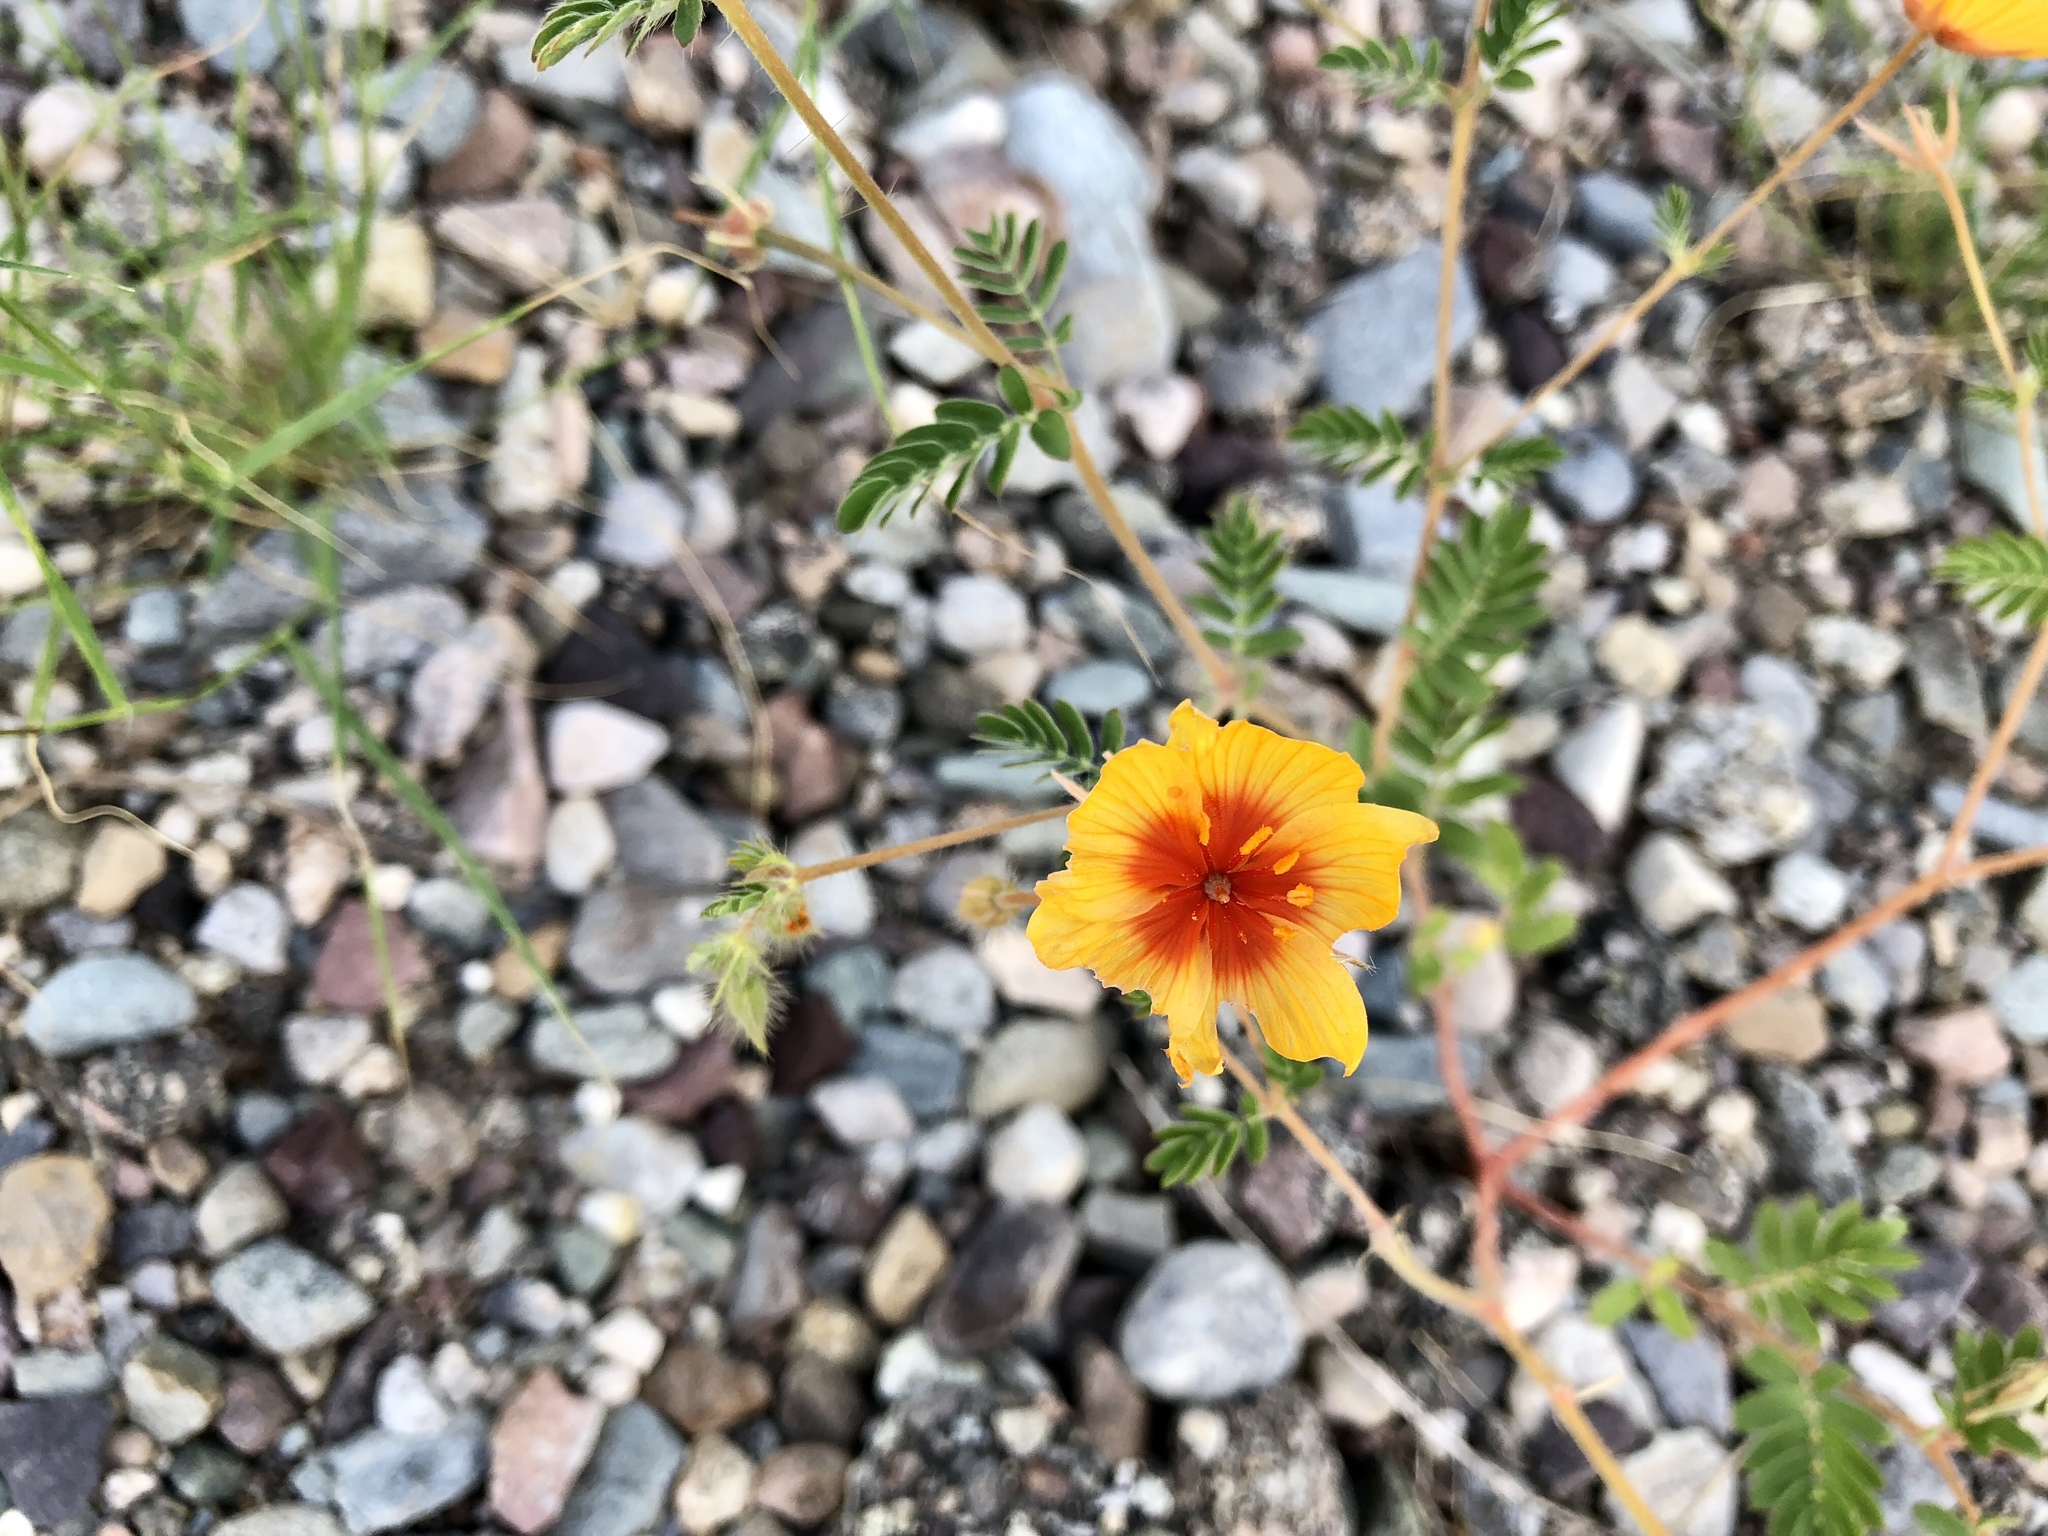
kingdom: Plantae
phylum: Tracheophyta
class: Magnoliopsida
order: Zygophyllales
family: Zygophyllaceae
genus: Kallstroemia
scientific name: Kallstroemia grandiflora
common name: Arizona-poppy
